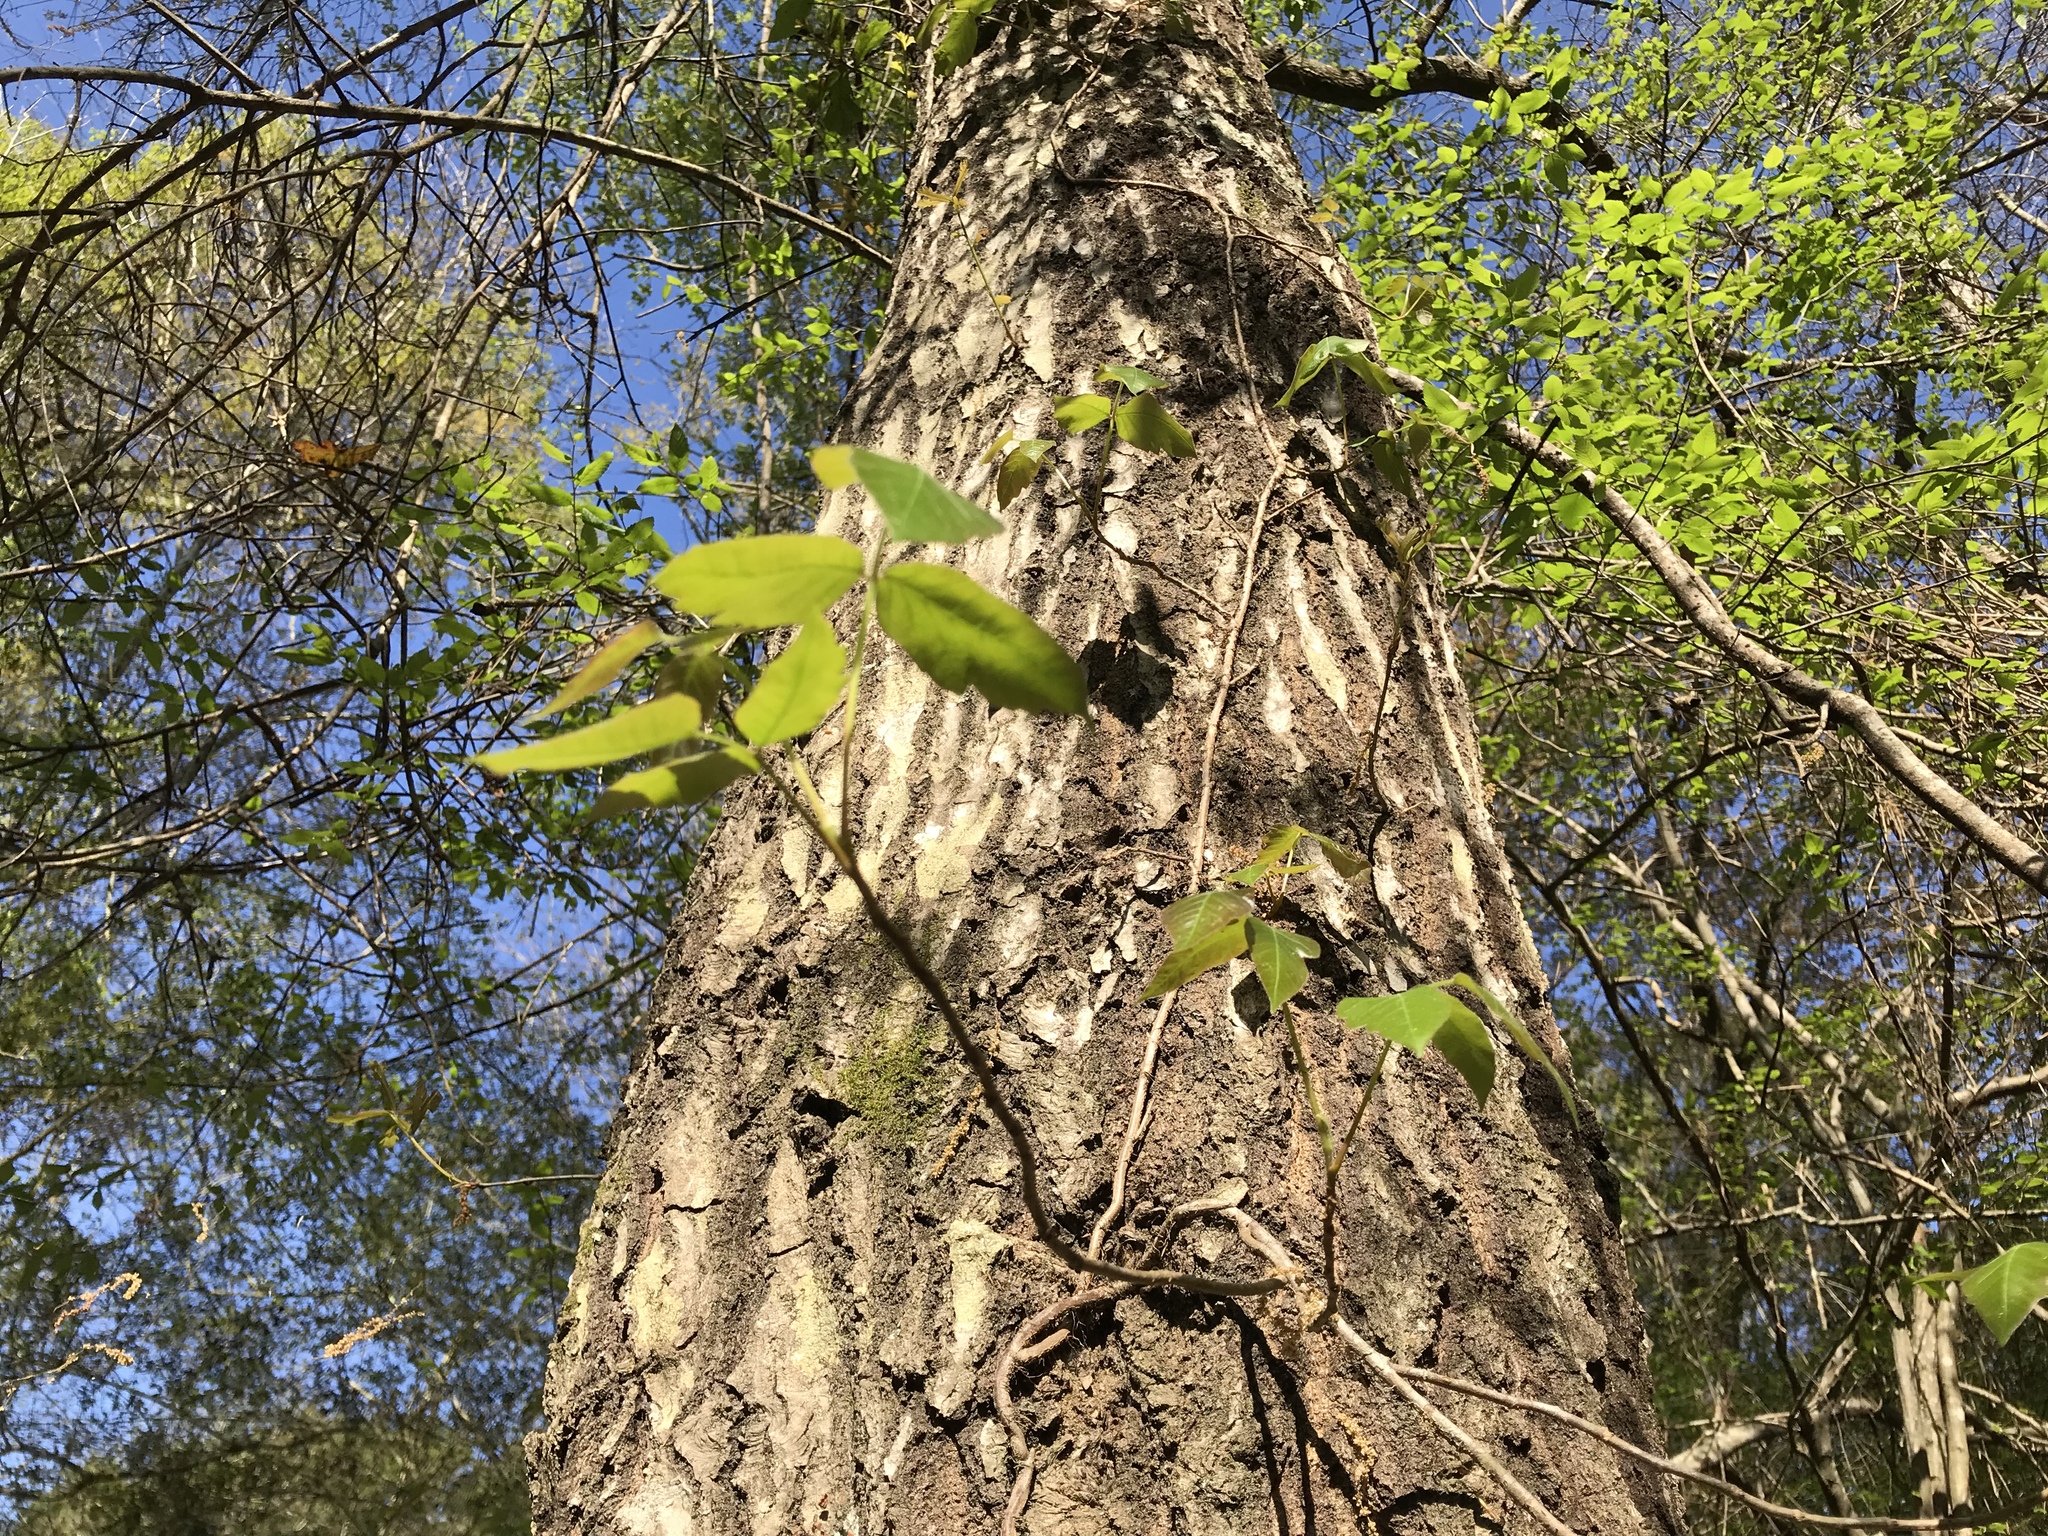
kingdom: Plantae
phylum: Tracheophyta
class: Magnoliopsida
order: Sapindales
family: Anacardiaceae
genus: Toxicodendron
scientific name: Toxicodendron radicans
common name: Poison ivy
